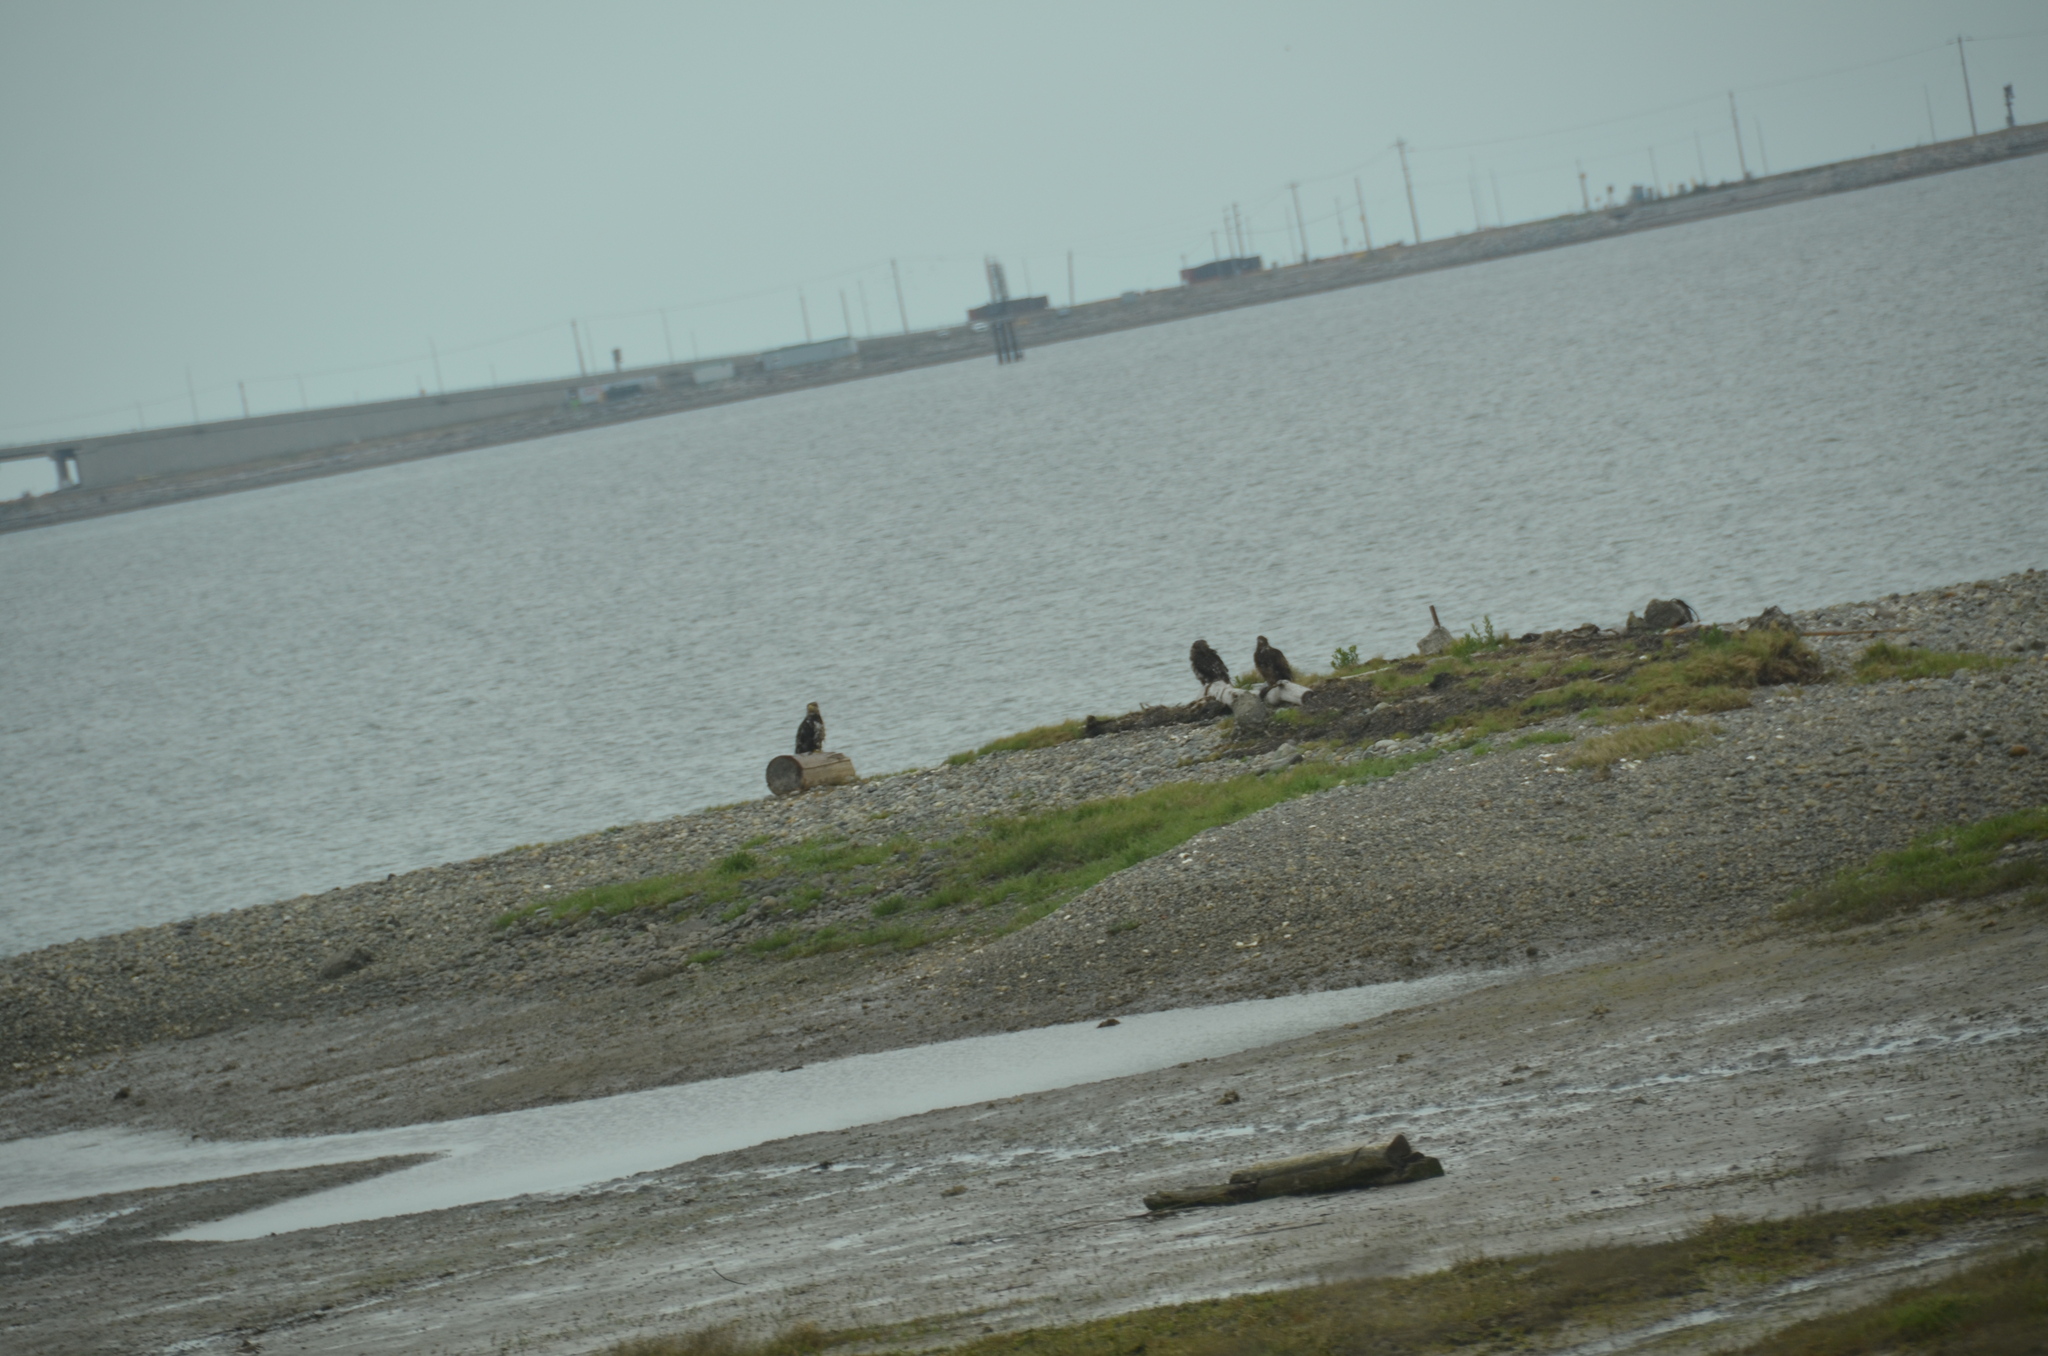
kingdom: Animalia
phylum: Chordata
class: Aves
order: Accipitriformes
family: Accipitridae
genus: Haliaeetus
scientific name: Haliaeetus leucocephalus
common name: Bald eagle
